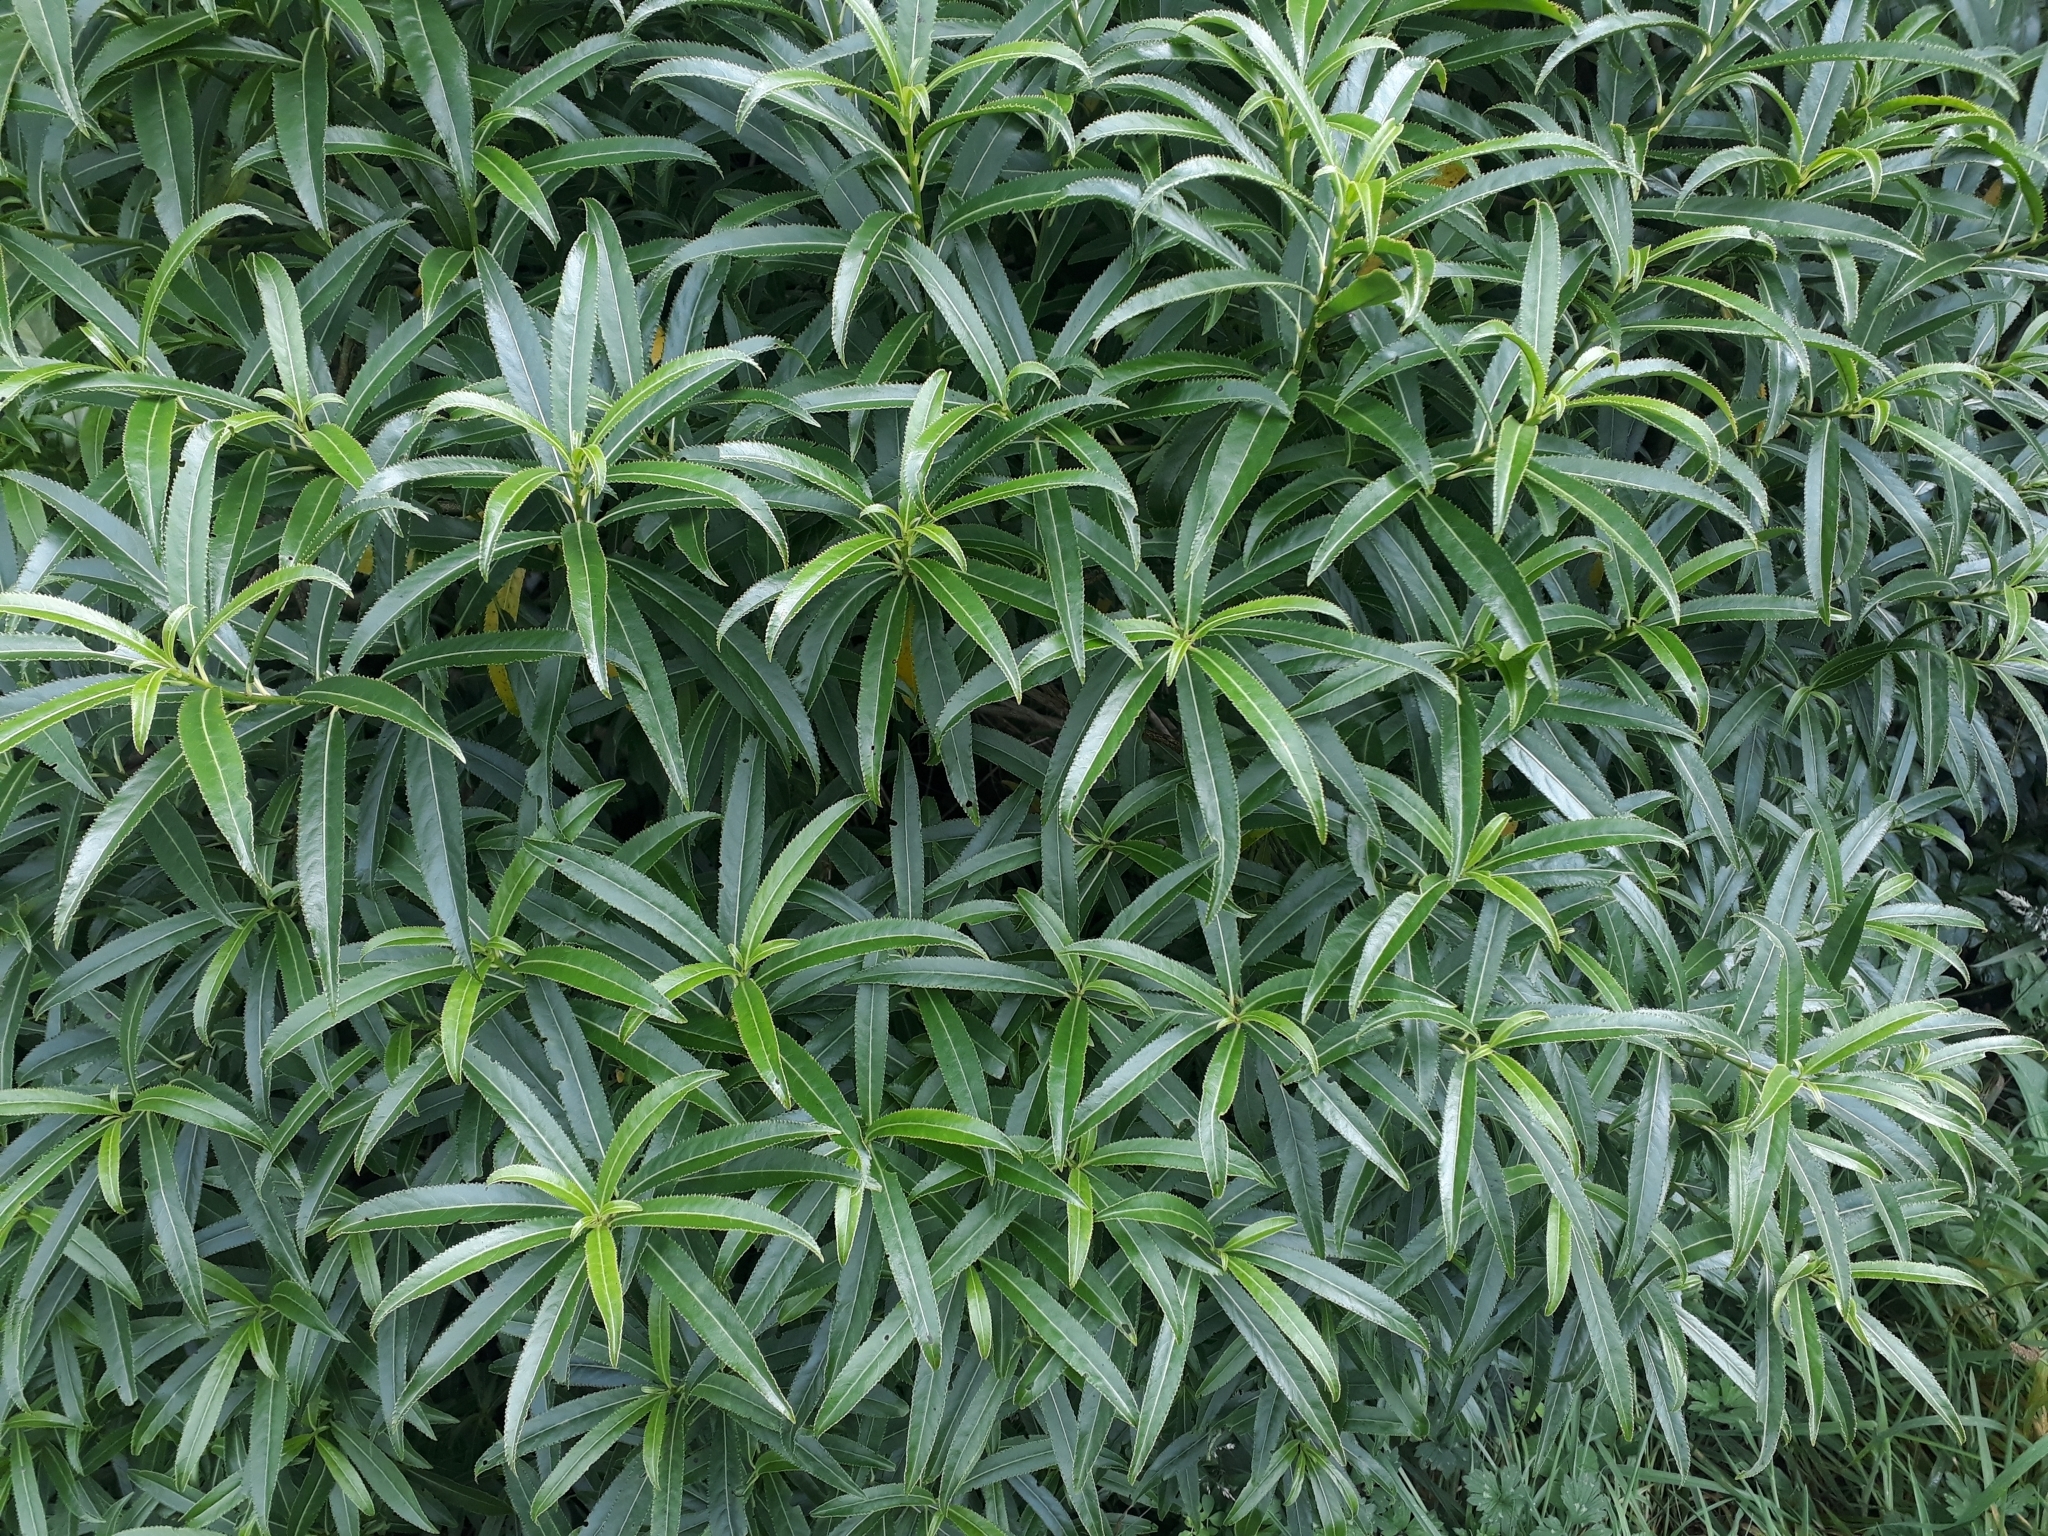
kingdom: Plantae
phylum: Tracheophyta
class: Magnoliopsida
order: Malpighiales
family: Violaceae
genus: Melicytus
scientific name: Melicytus lanceolatus
